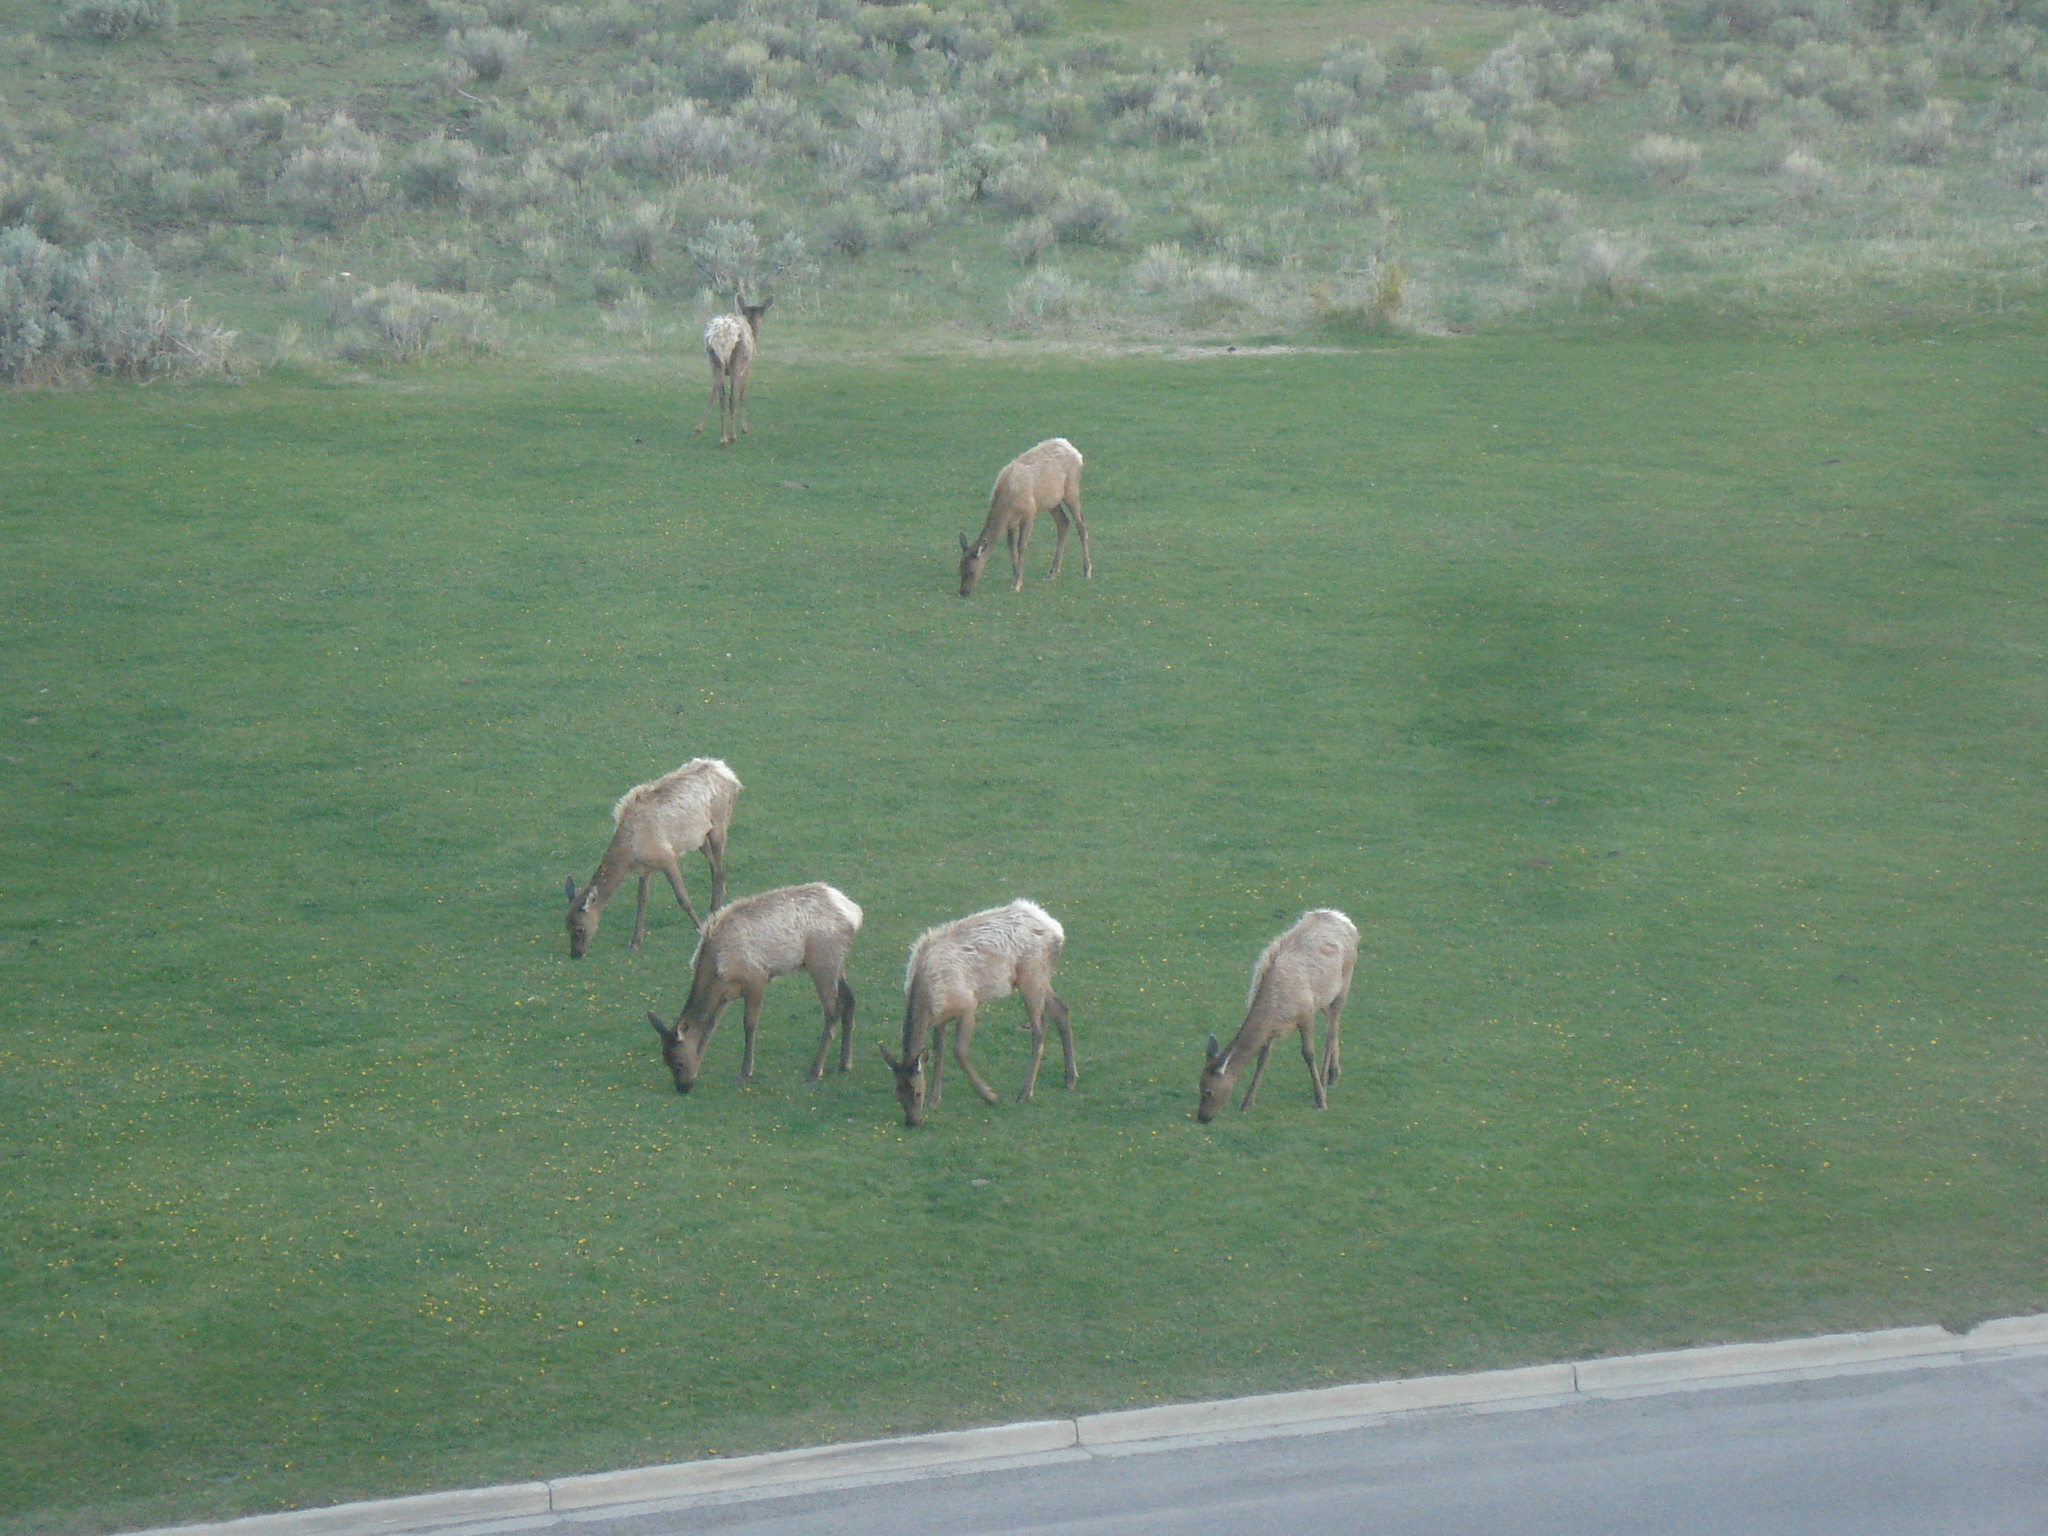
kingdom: Animalia
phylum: Chordata
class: Mammalia
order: Artiodactyla
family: Cervidae
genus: Cervus
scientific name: Cervus elaphus
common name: Red deer
